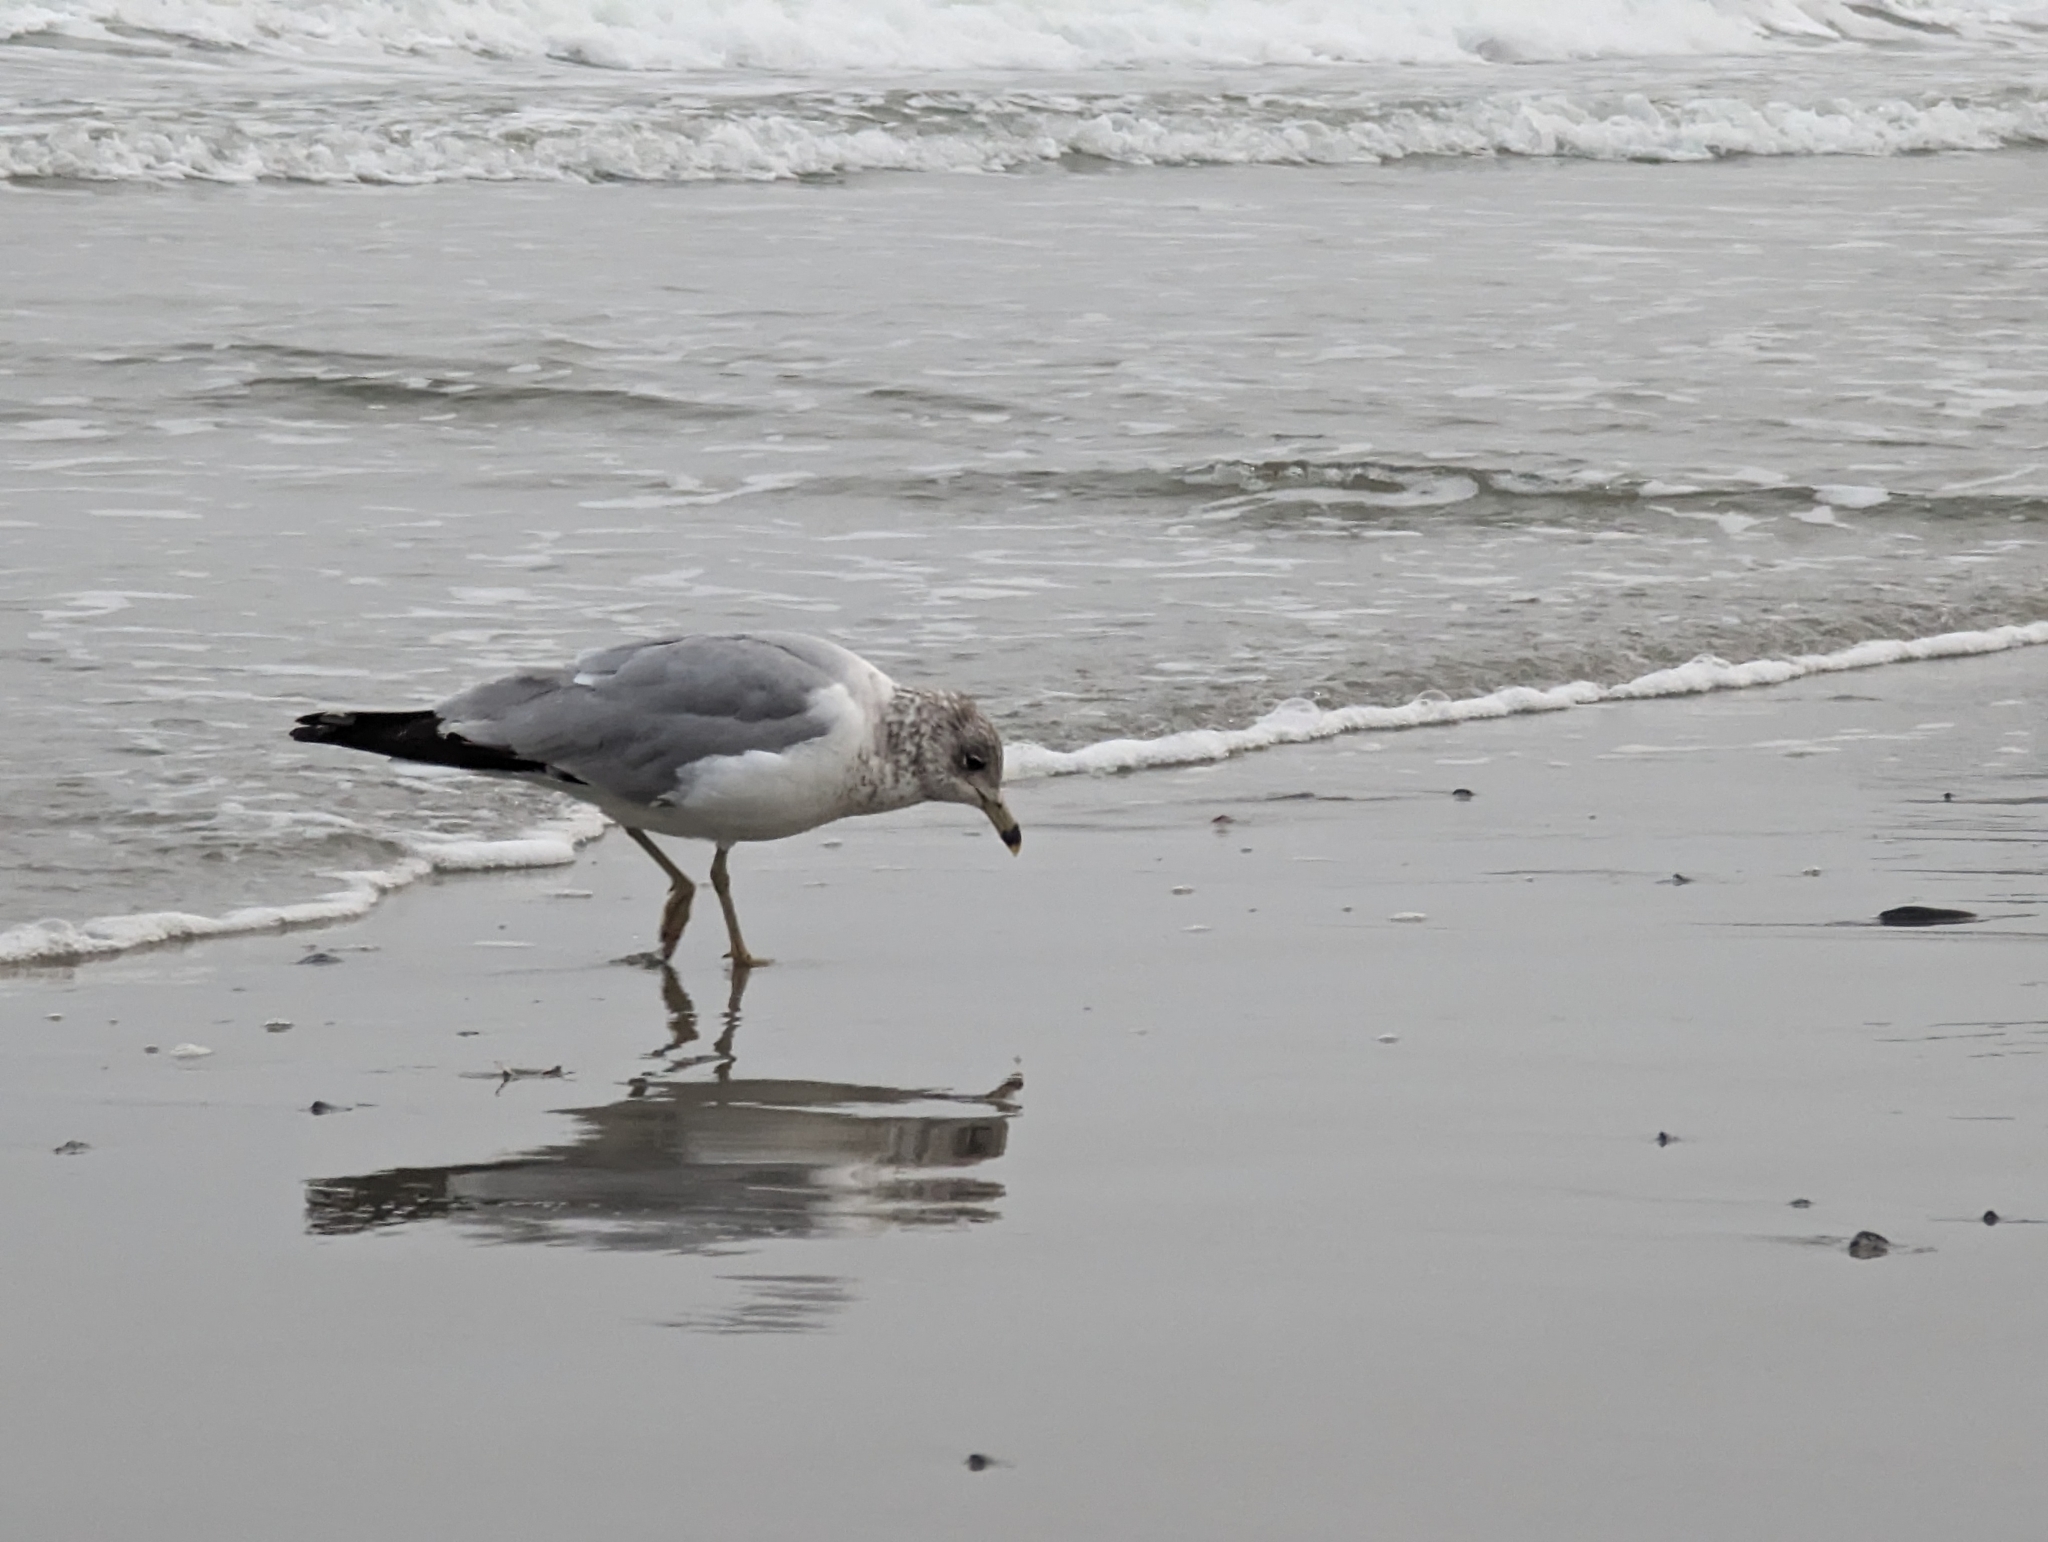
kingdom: Animalia
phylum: Chordata
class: Aves
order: Charadriiformes
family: Laridae
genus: Larus
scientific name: Larus delawarensis
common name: Ring-billed gull
